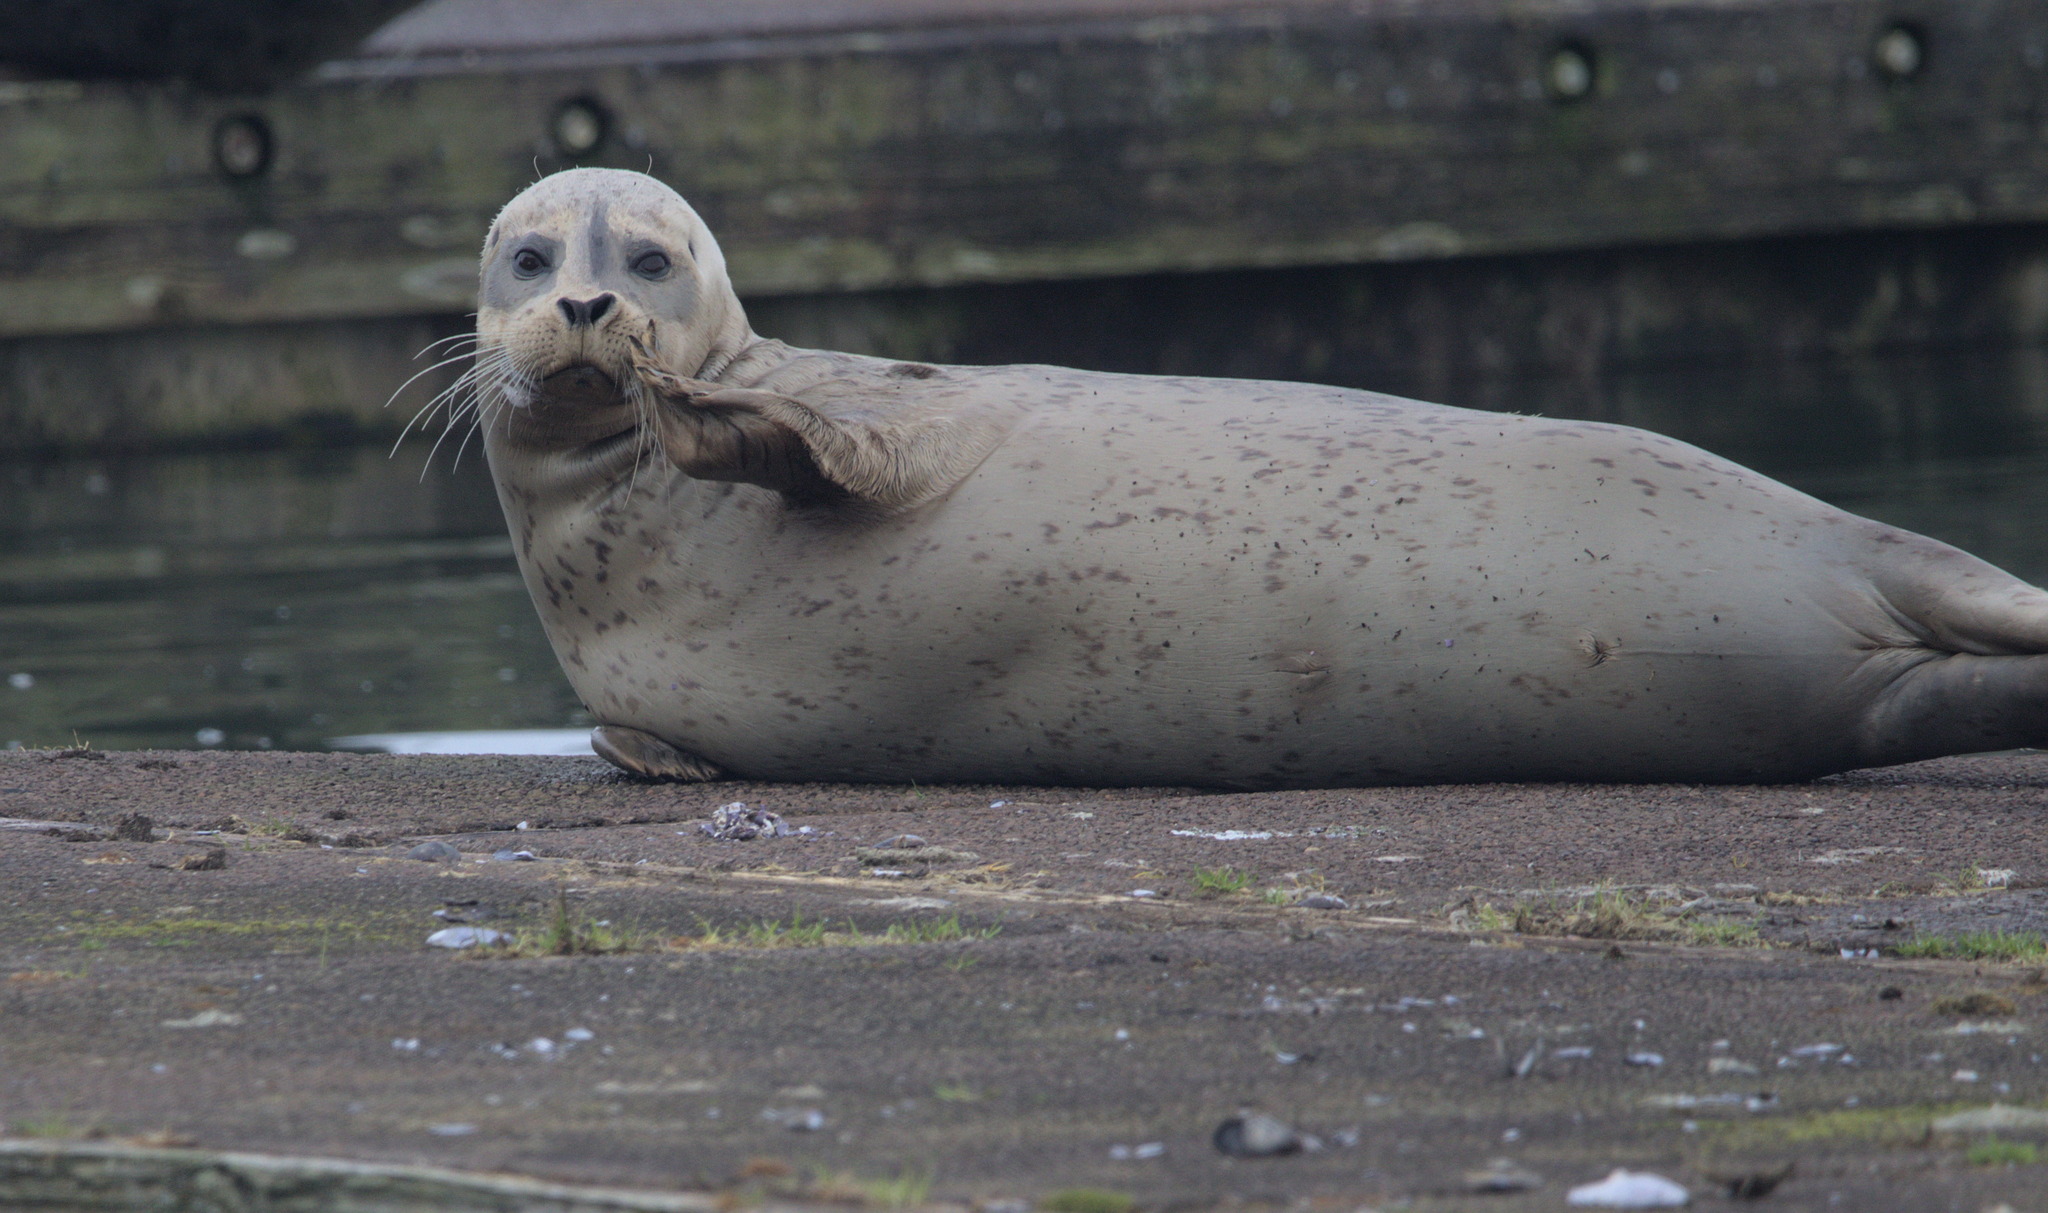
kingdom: Animalia
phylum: Chordata
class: Mammalia
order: Carnivora
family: Phocidae
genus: Phoca
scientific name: Phoca vitulina
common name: Harbor seal
